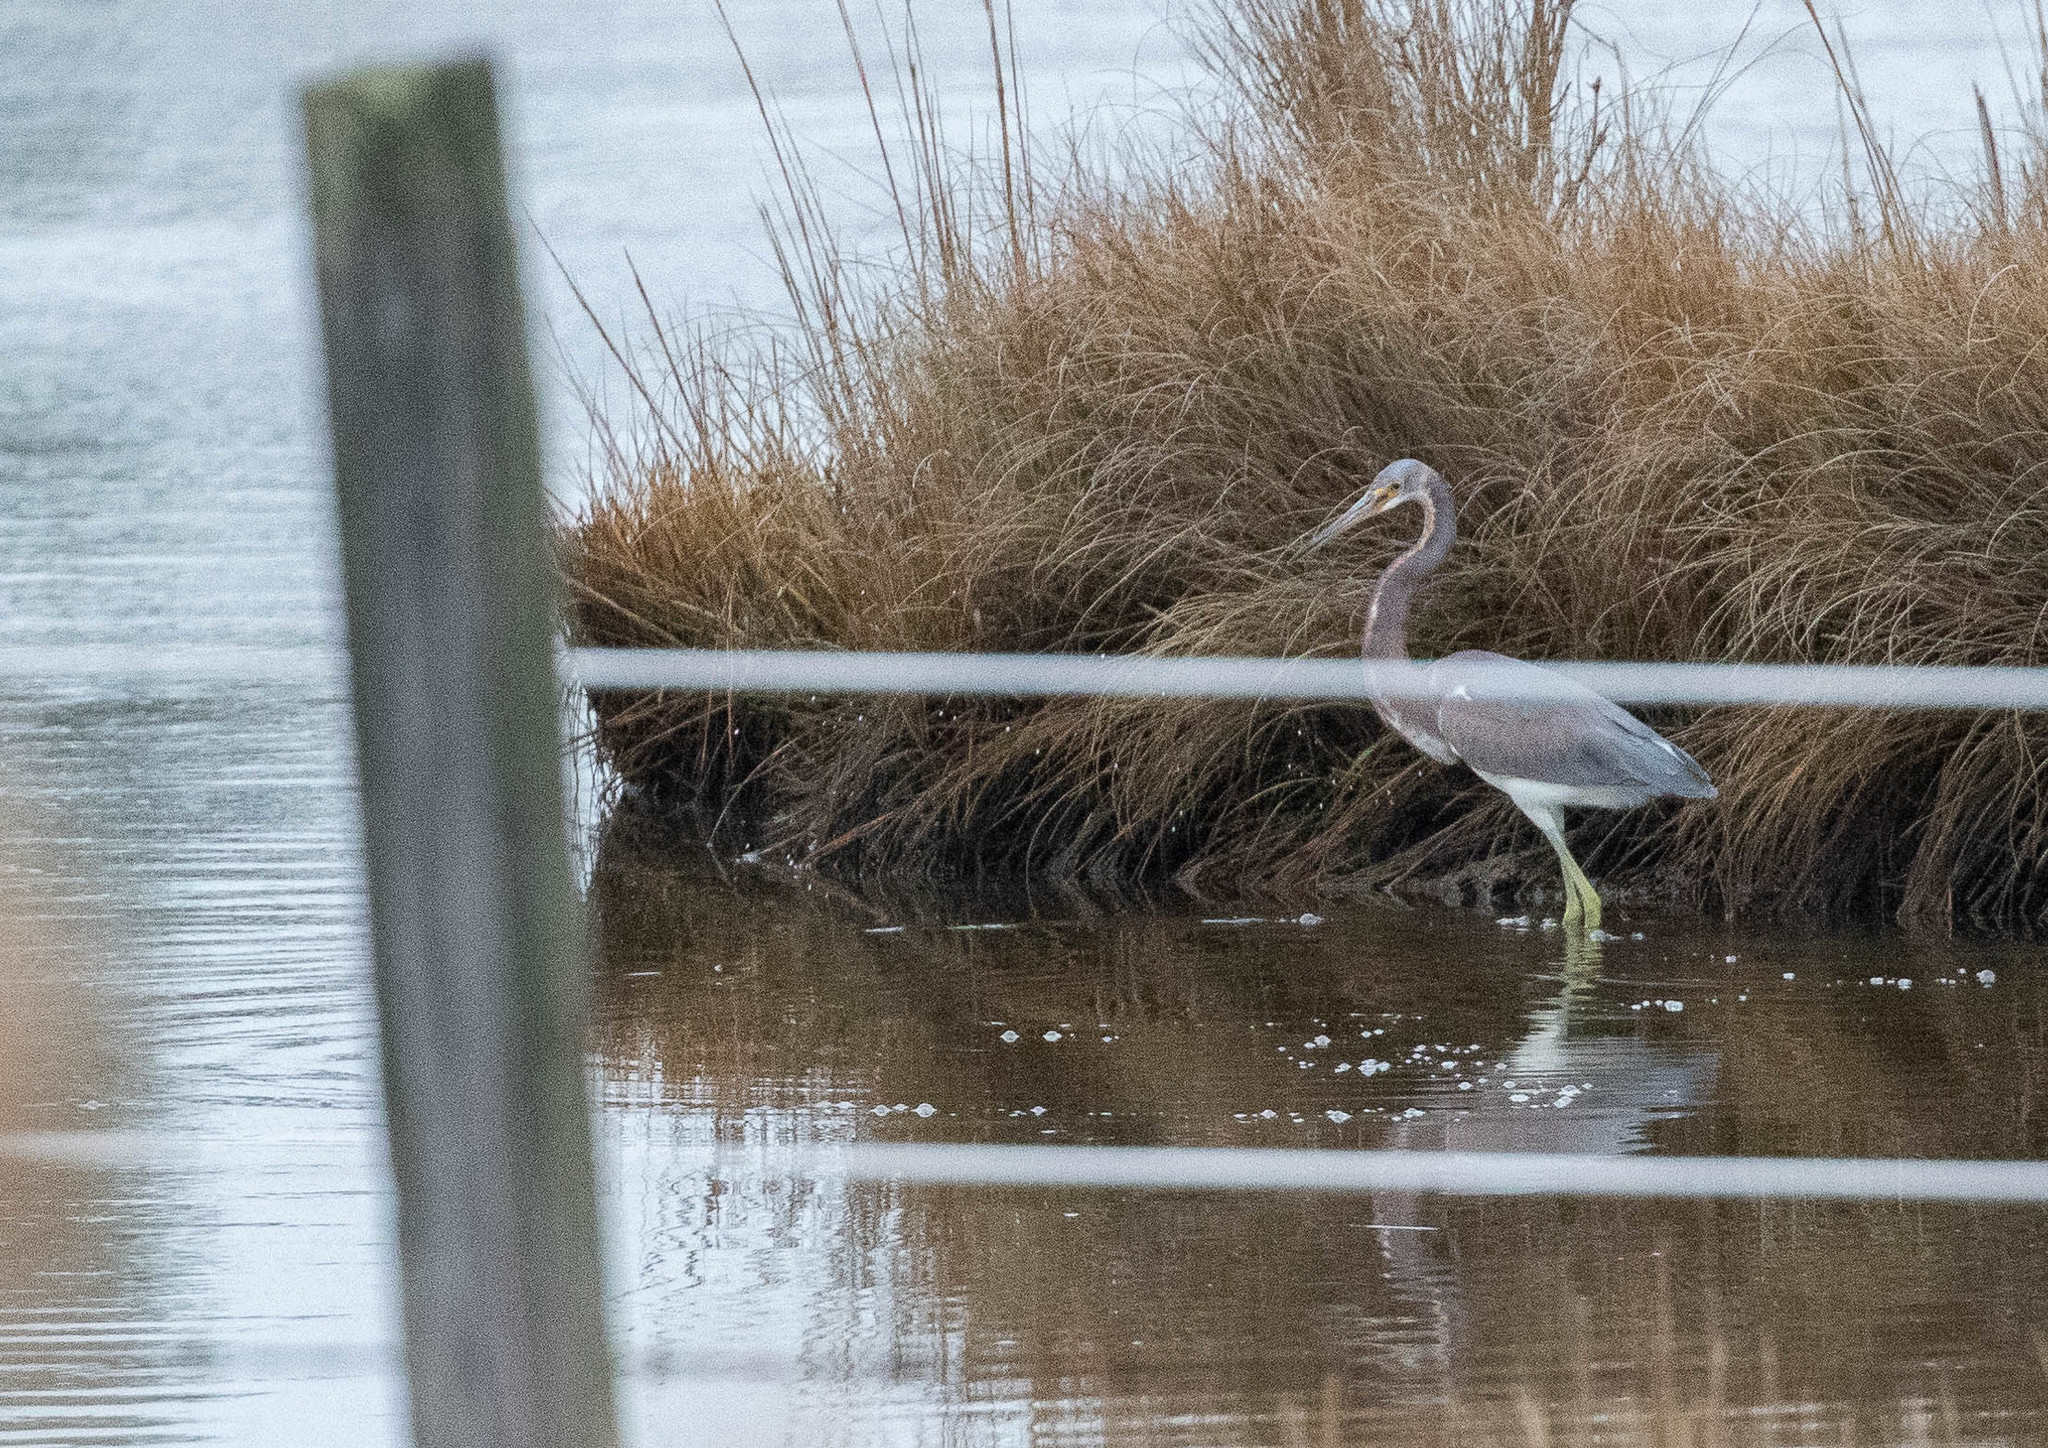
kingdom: Animalia
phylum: Chordata
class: Aves
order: Pelecaniformes
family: Ardeidae
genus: Egretta
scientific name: Egretta tricolor
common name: Tricolored heron
